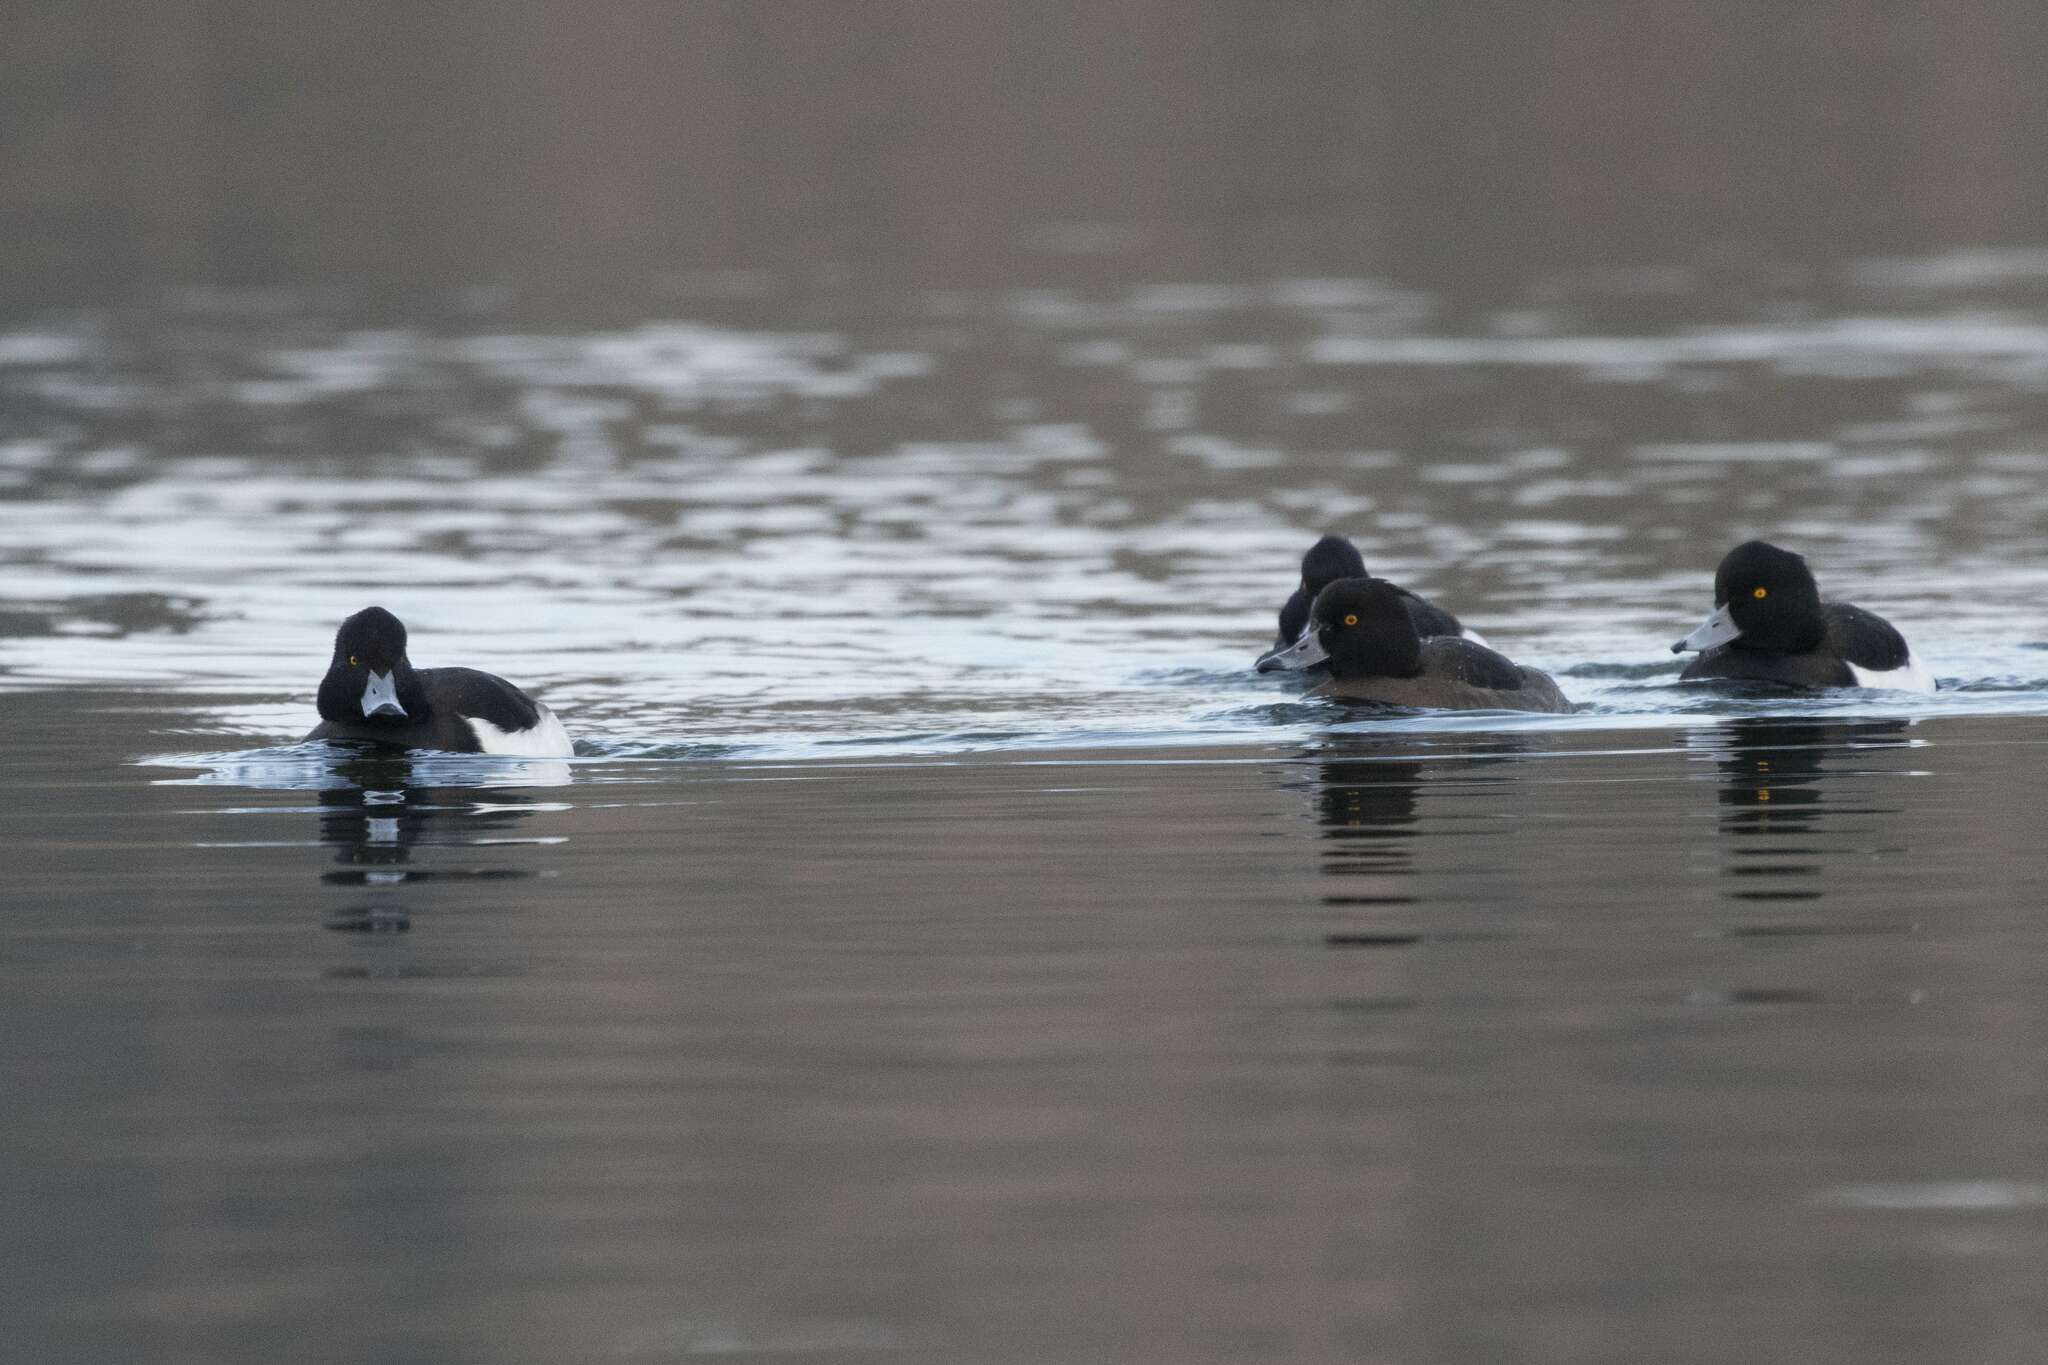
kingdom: Animalia
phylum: Chordata
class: Aves
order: Anseriformes
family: Anatidae
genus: Aythya
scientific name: Aythya fuligula
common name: Tufted duck
